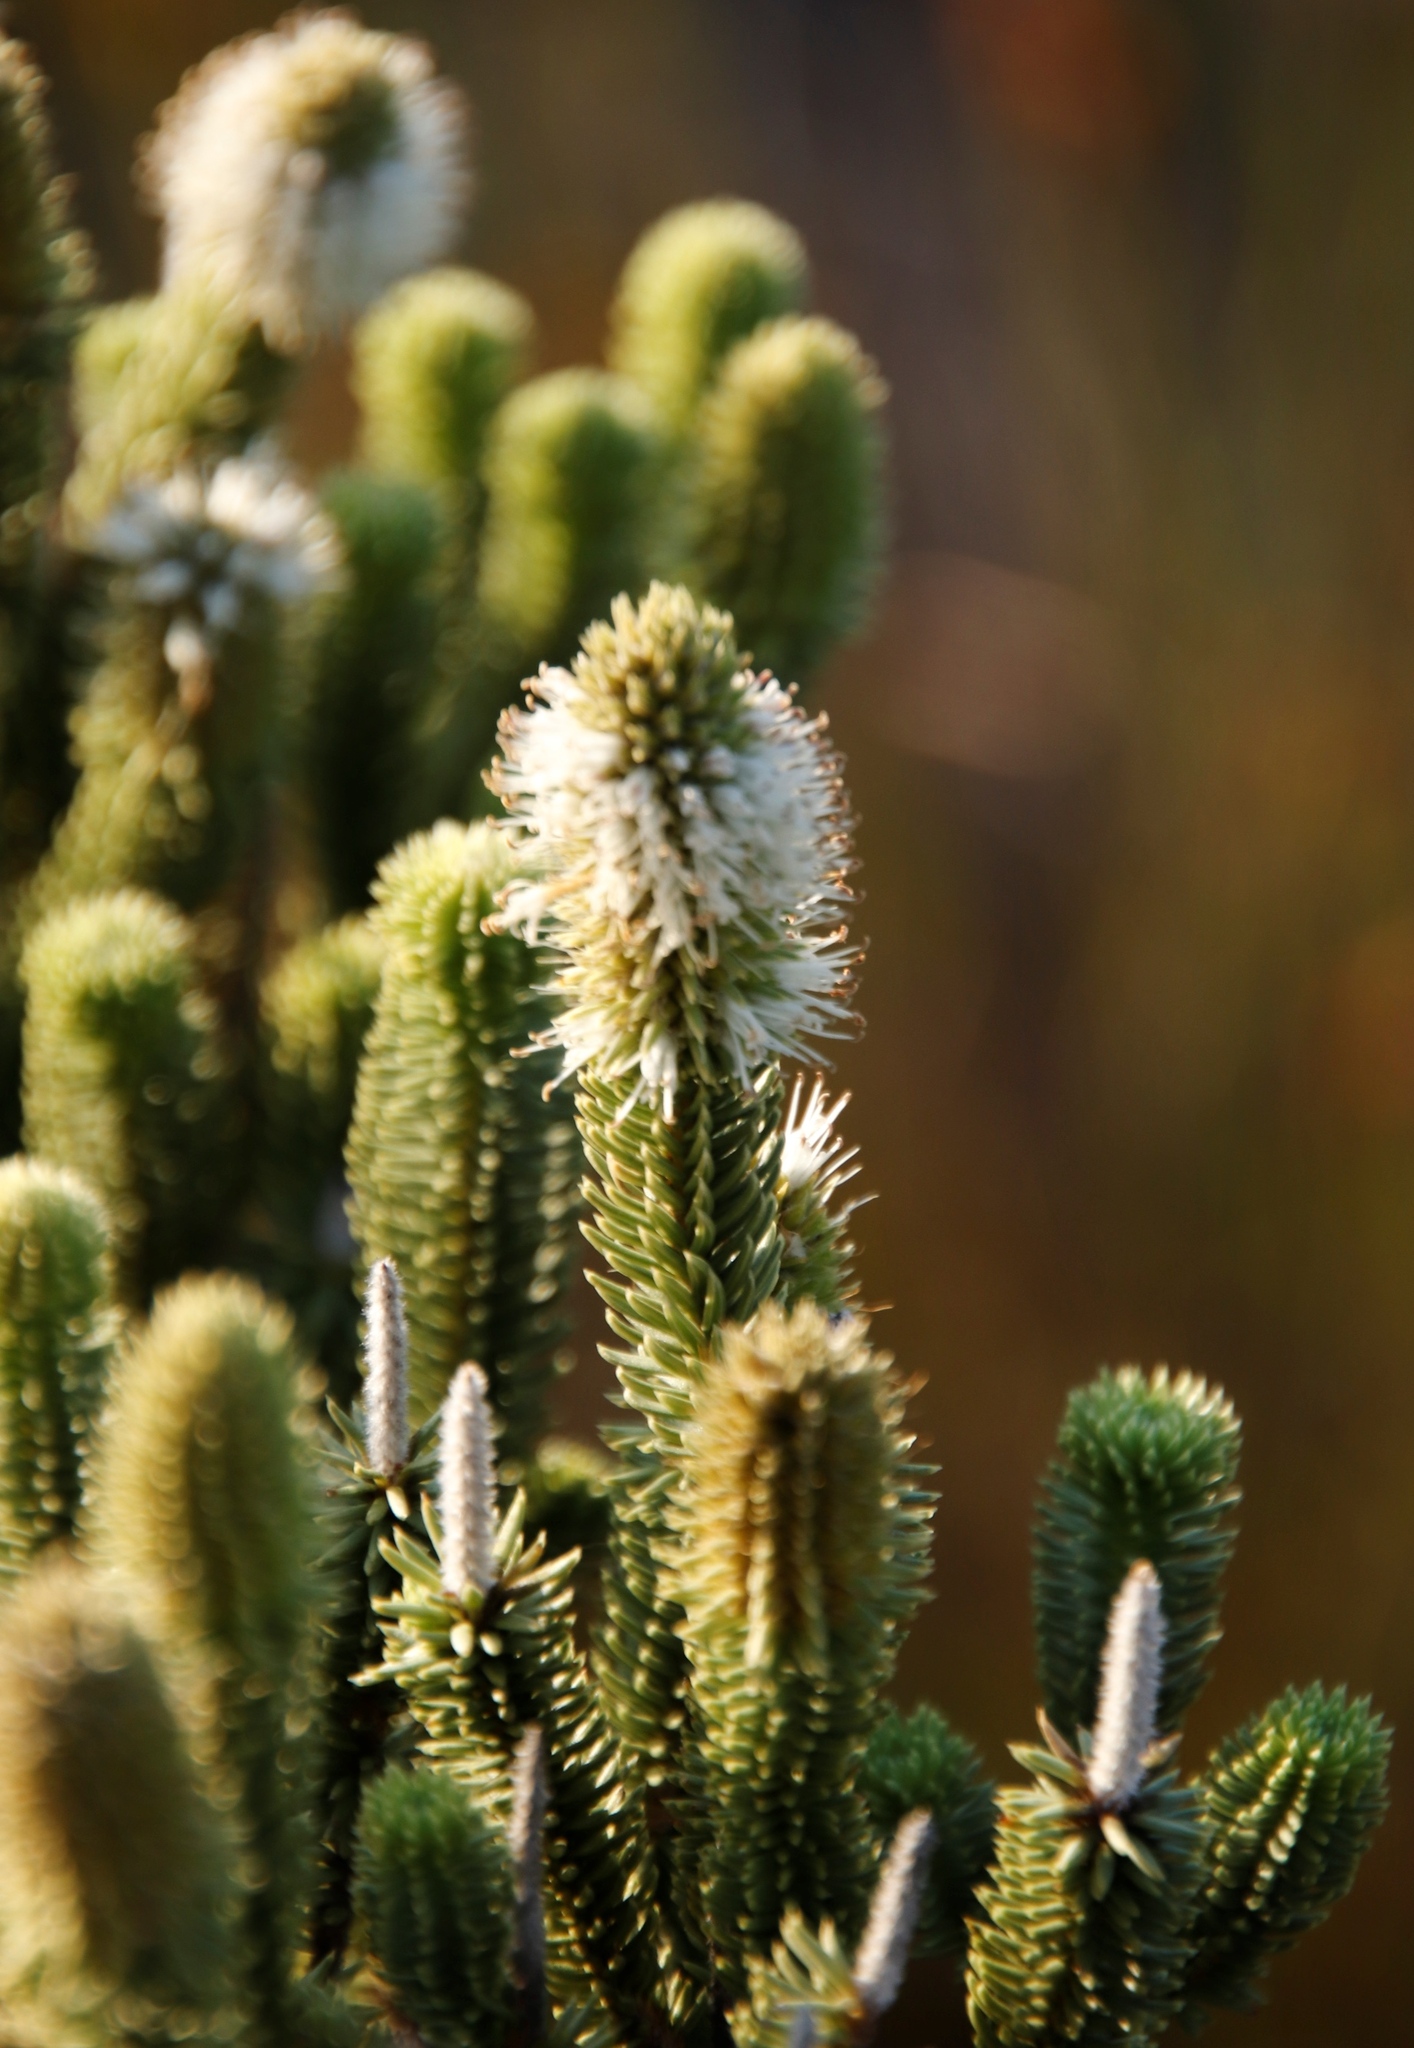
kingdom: Plantae
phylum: Tracheophyta
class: Magnoliopsida
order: Lamiales
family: Stilbaceae
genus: Stilbe
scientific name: Stilbe vestita
